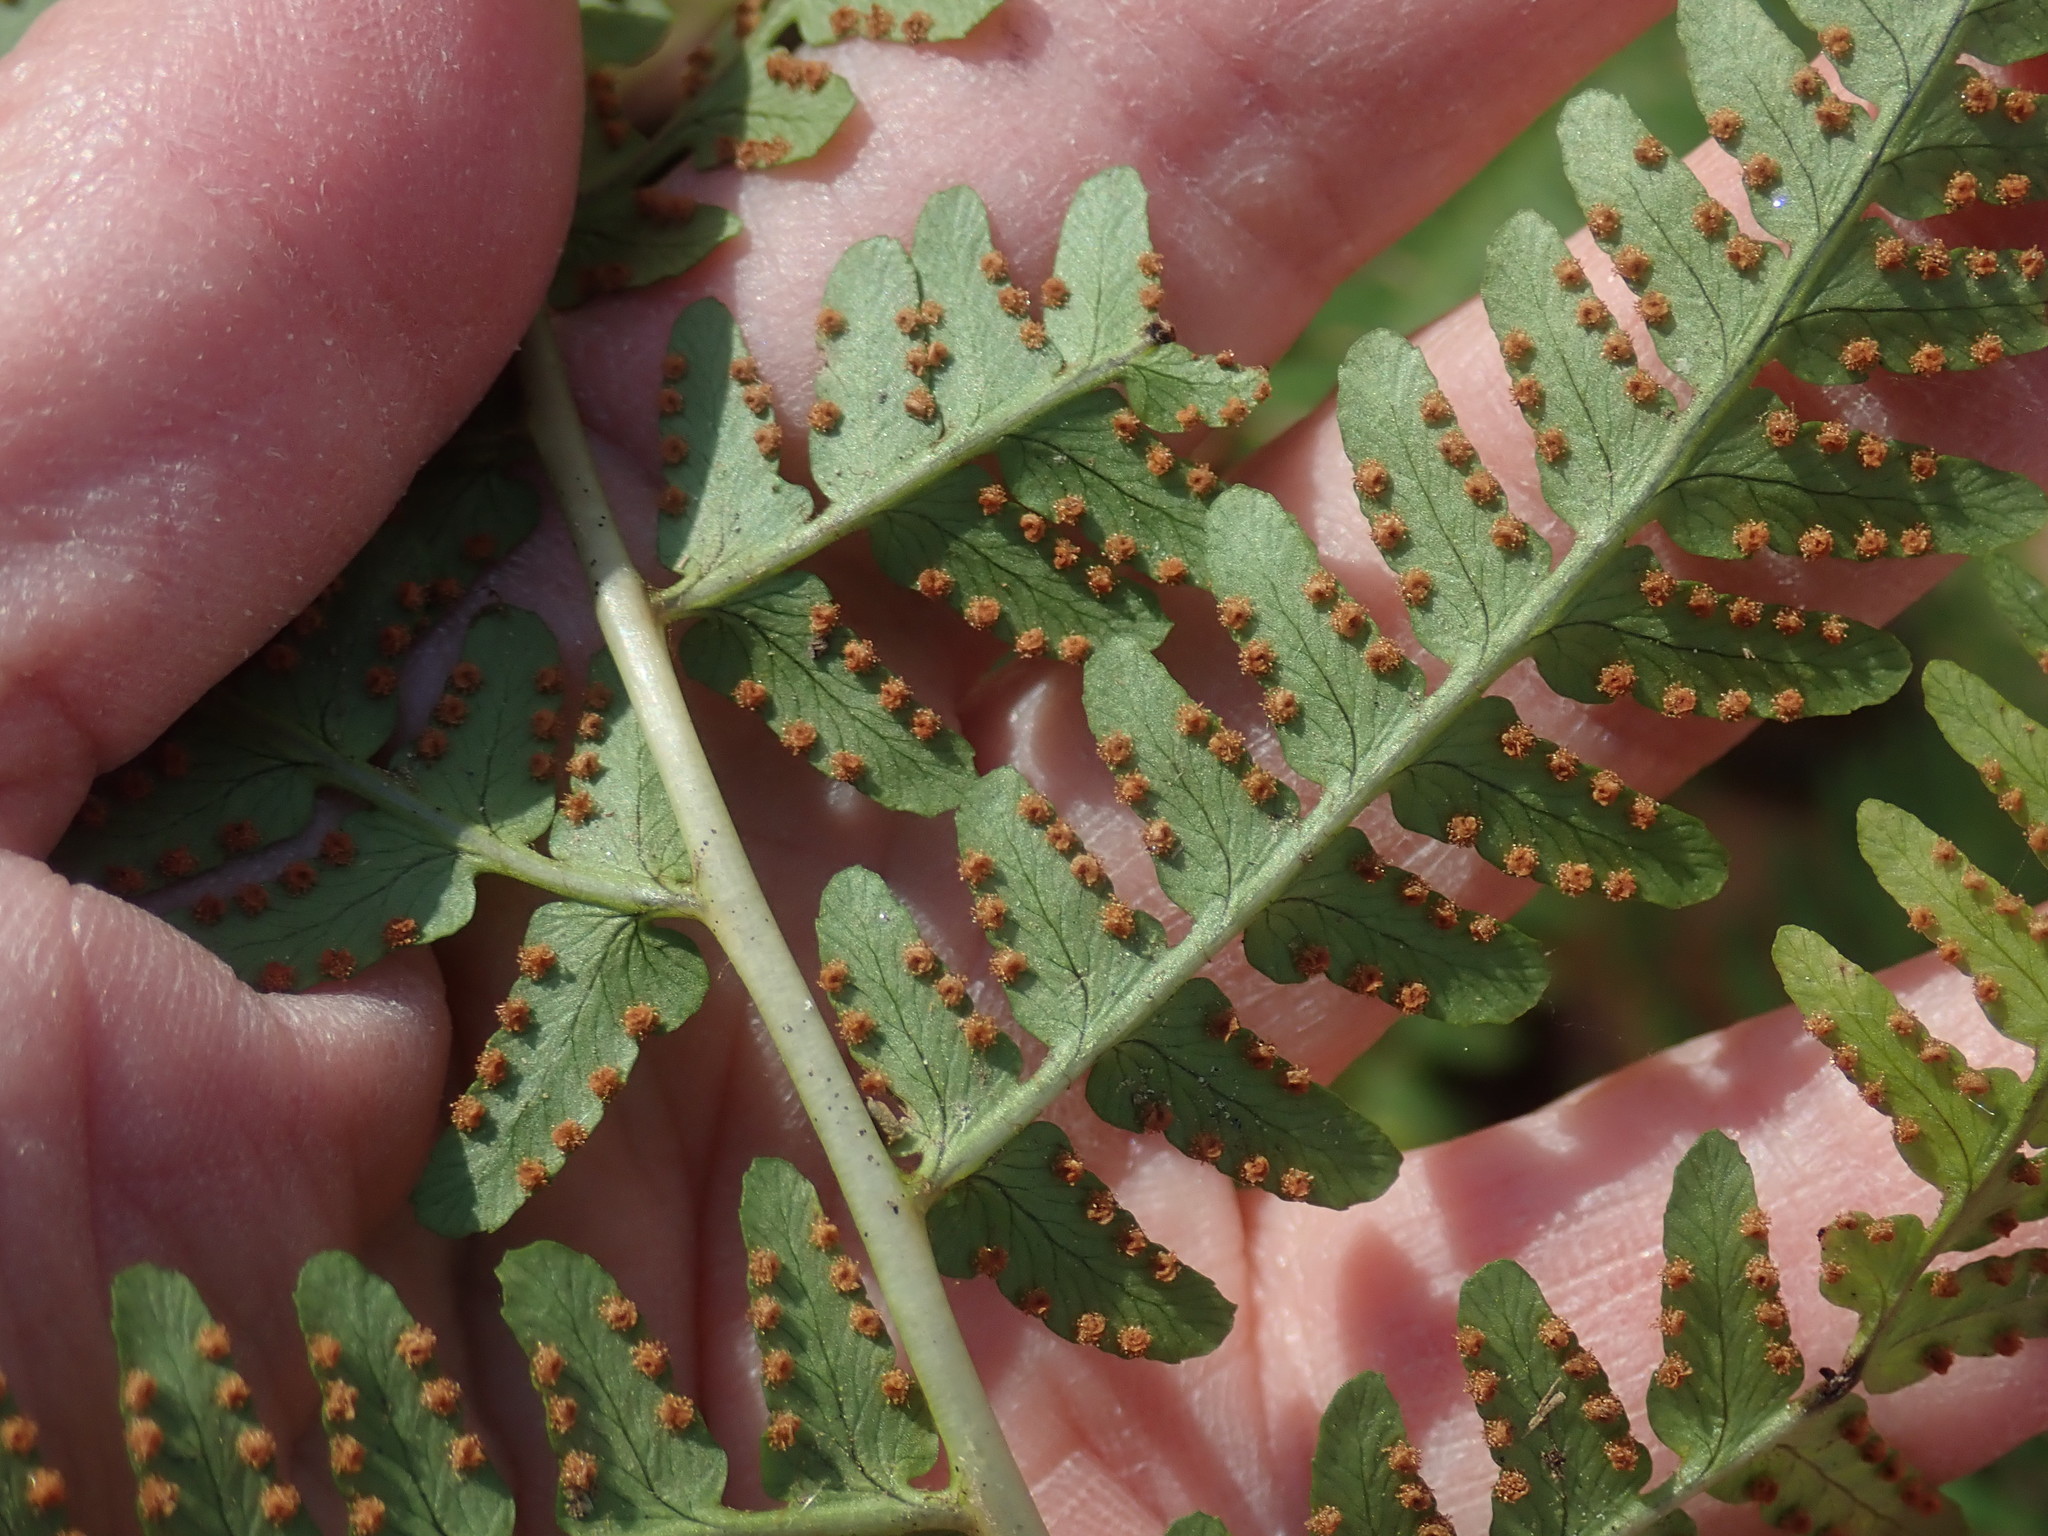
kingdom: Plantae
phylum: Tracheophyta
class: Polypodiopsida
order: Polypodiales
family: Dryopteridaceae
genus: Dryopteris
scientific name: Dryopteris marginalis
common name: Marginal wood fern
